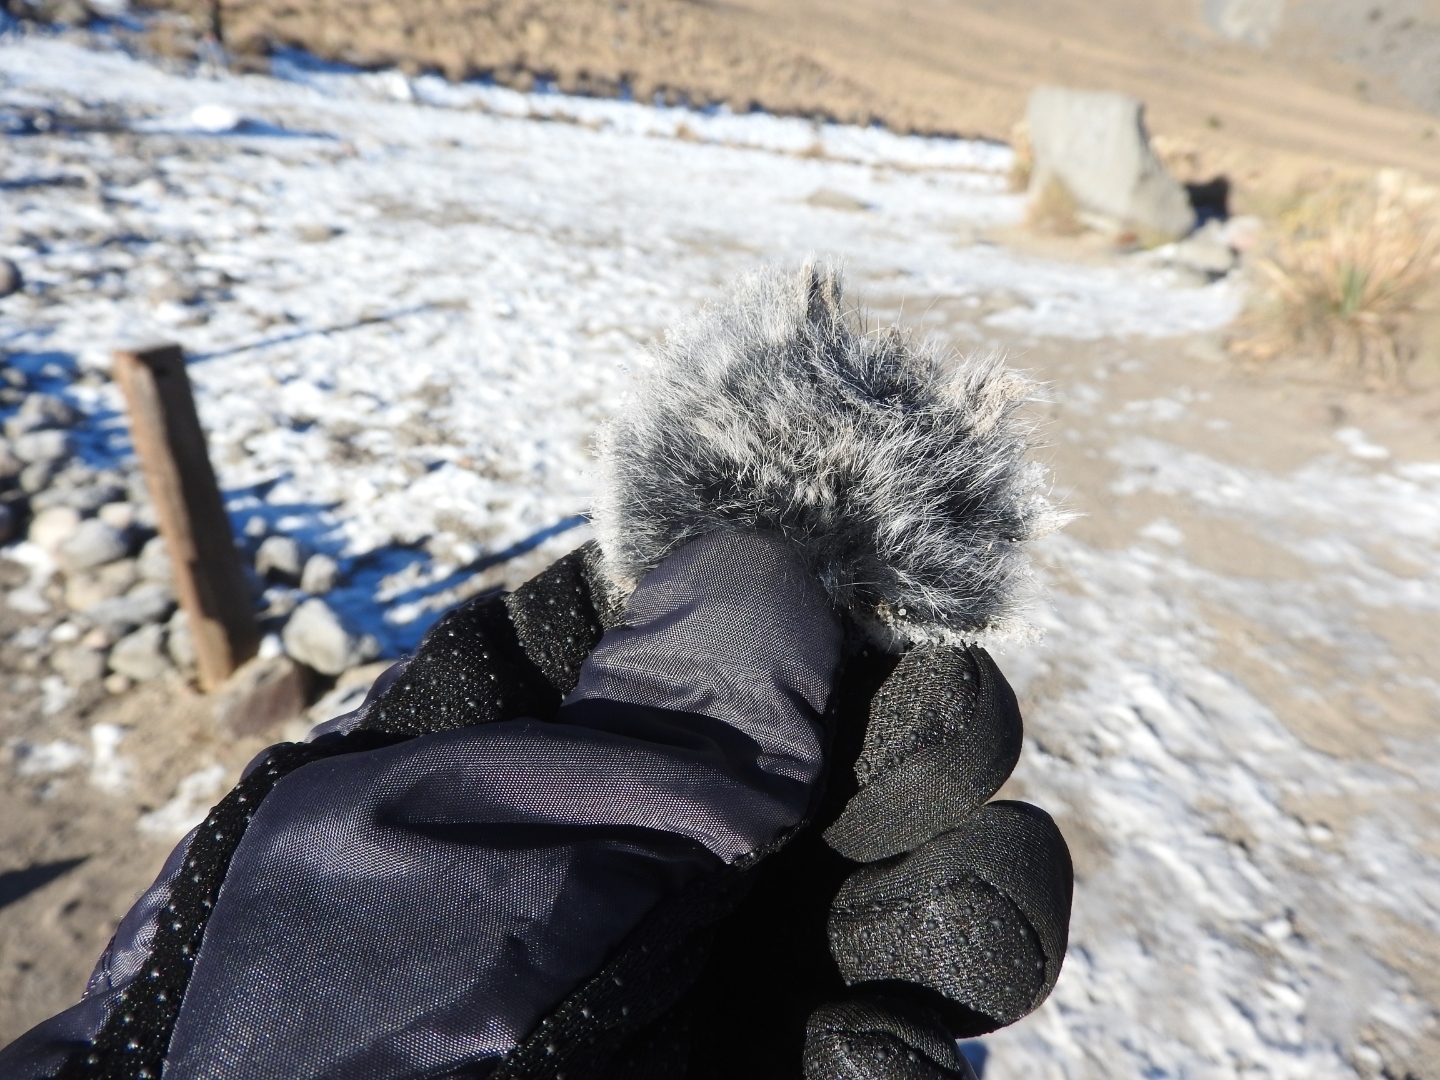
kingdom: Animalia
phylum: Chordata
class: Mammalia
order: Rodentia
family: Sciuridae
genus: Otospermophilus
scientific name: Otospermophilus variegatus
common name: Rock squirrel
